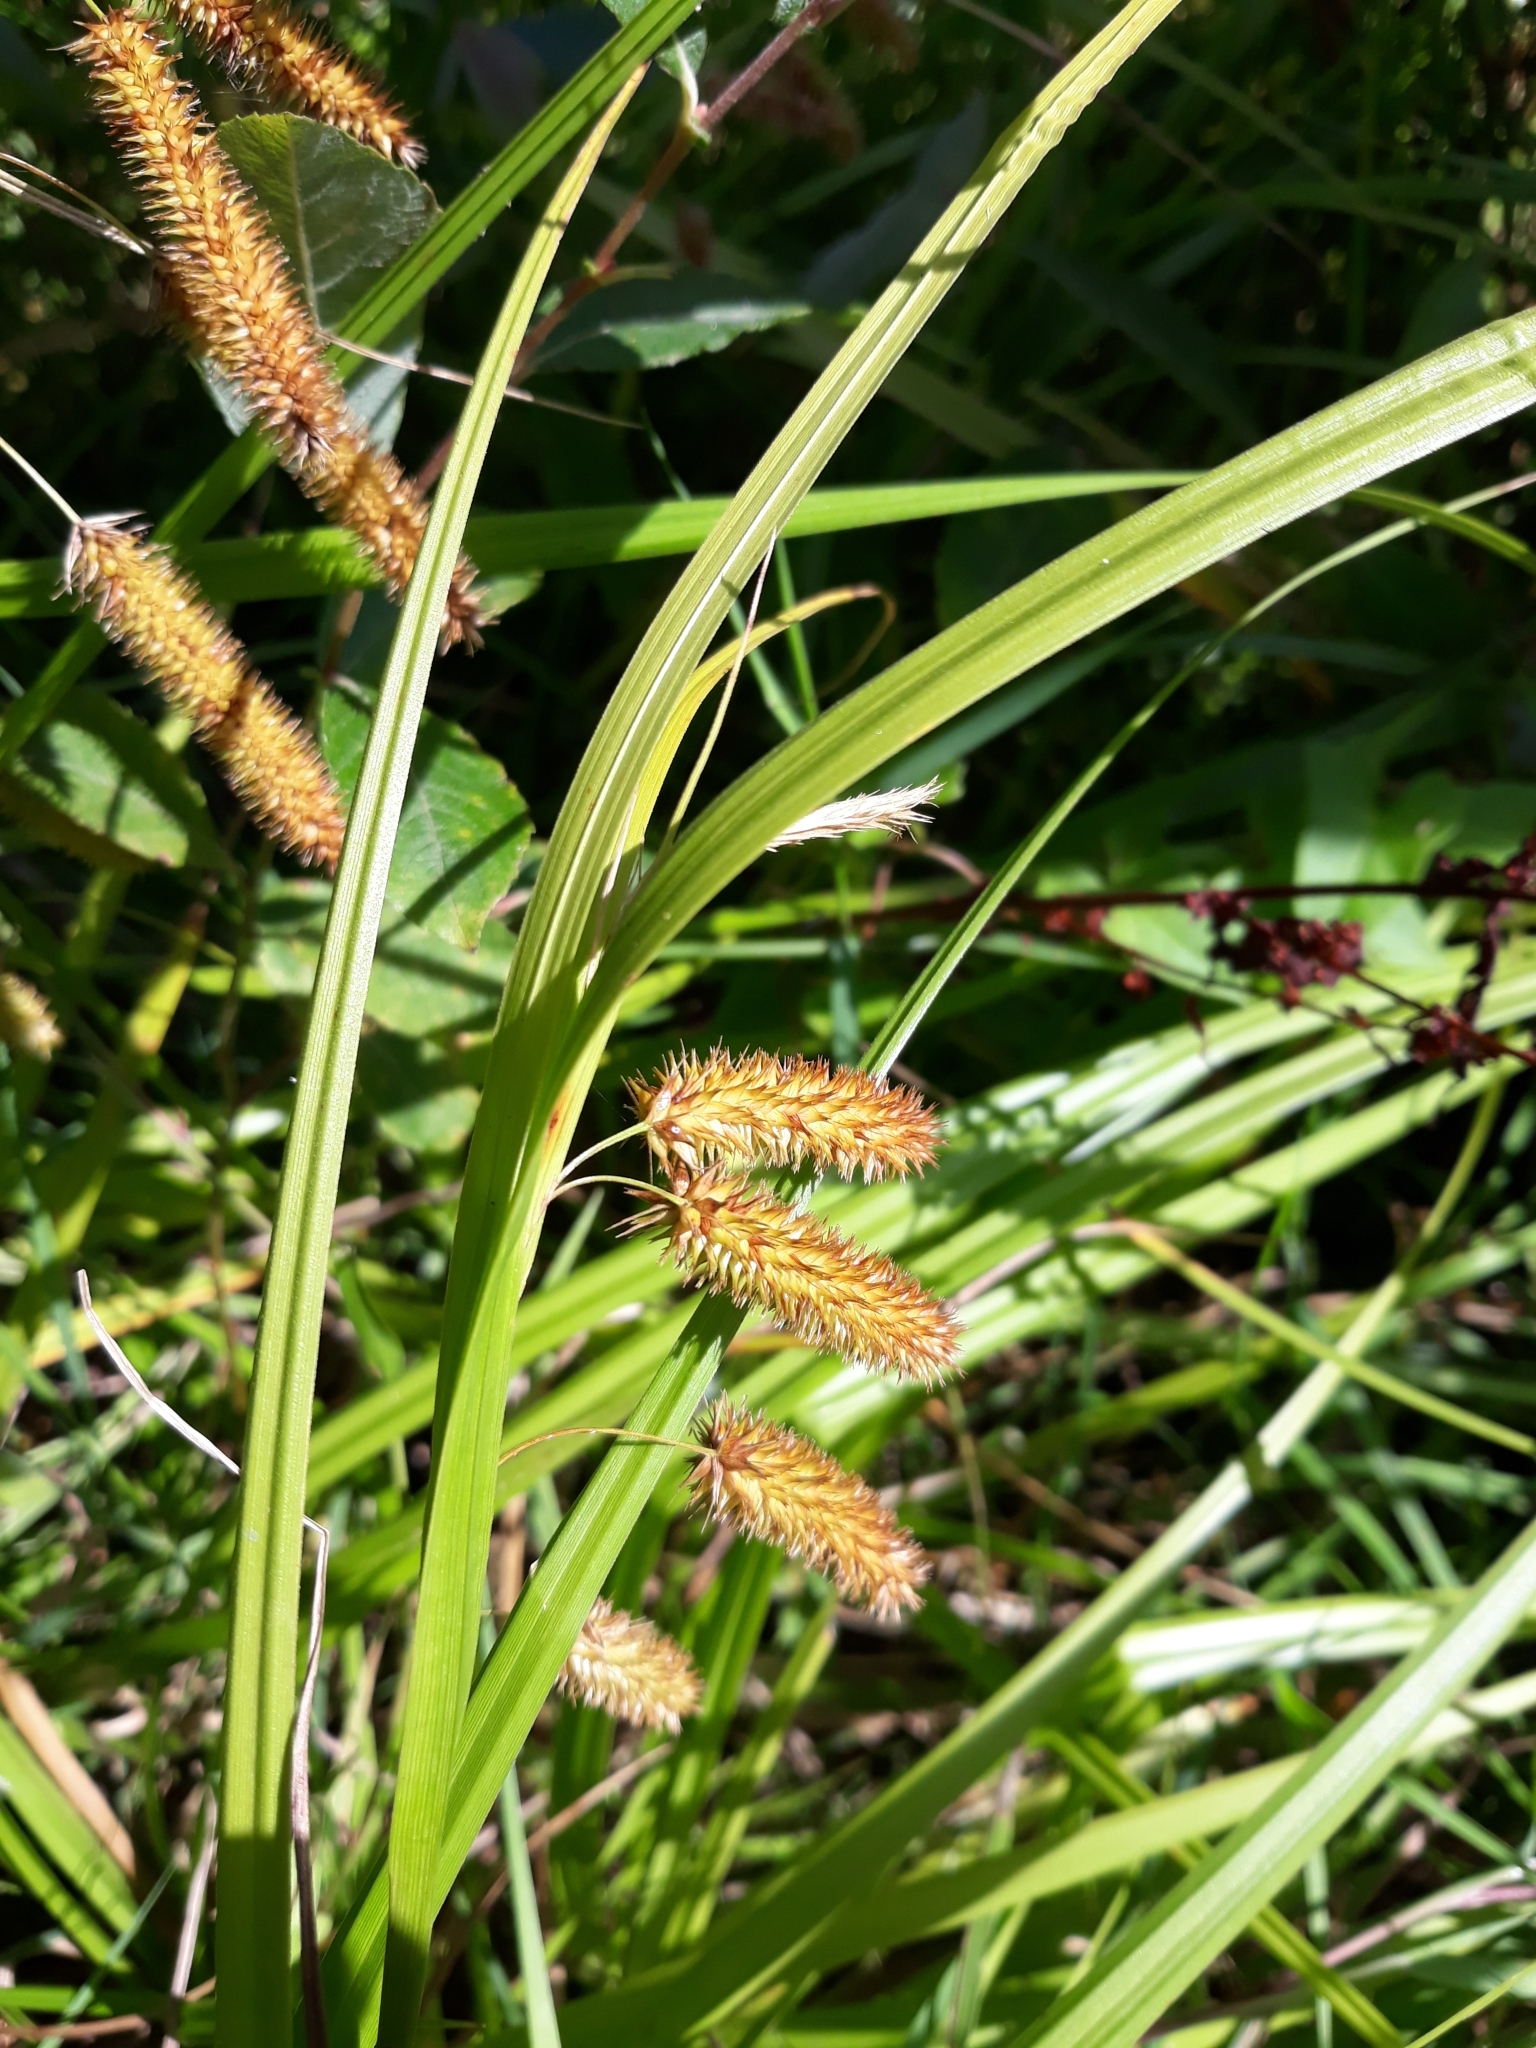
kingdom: Plantae
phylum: Tracheophyta
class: Liliopsida
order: Poales
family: Cyperaceae
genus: Carex
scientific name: Carex pseudocyperus
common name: Cyperus sedge
